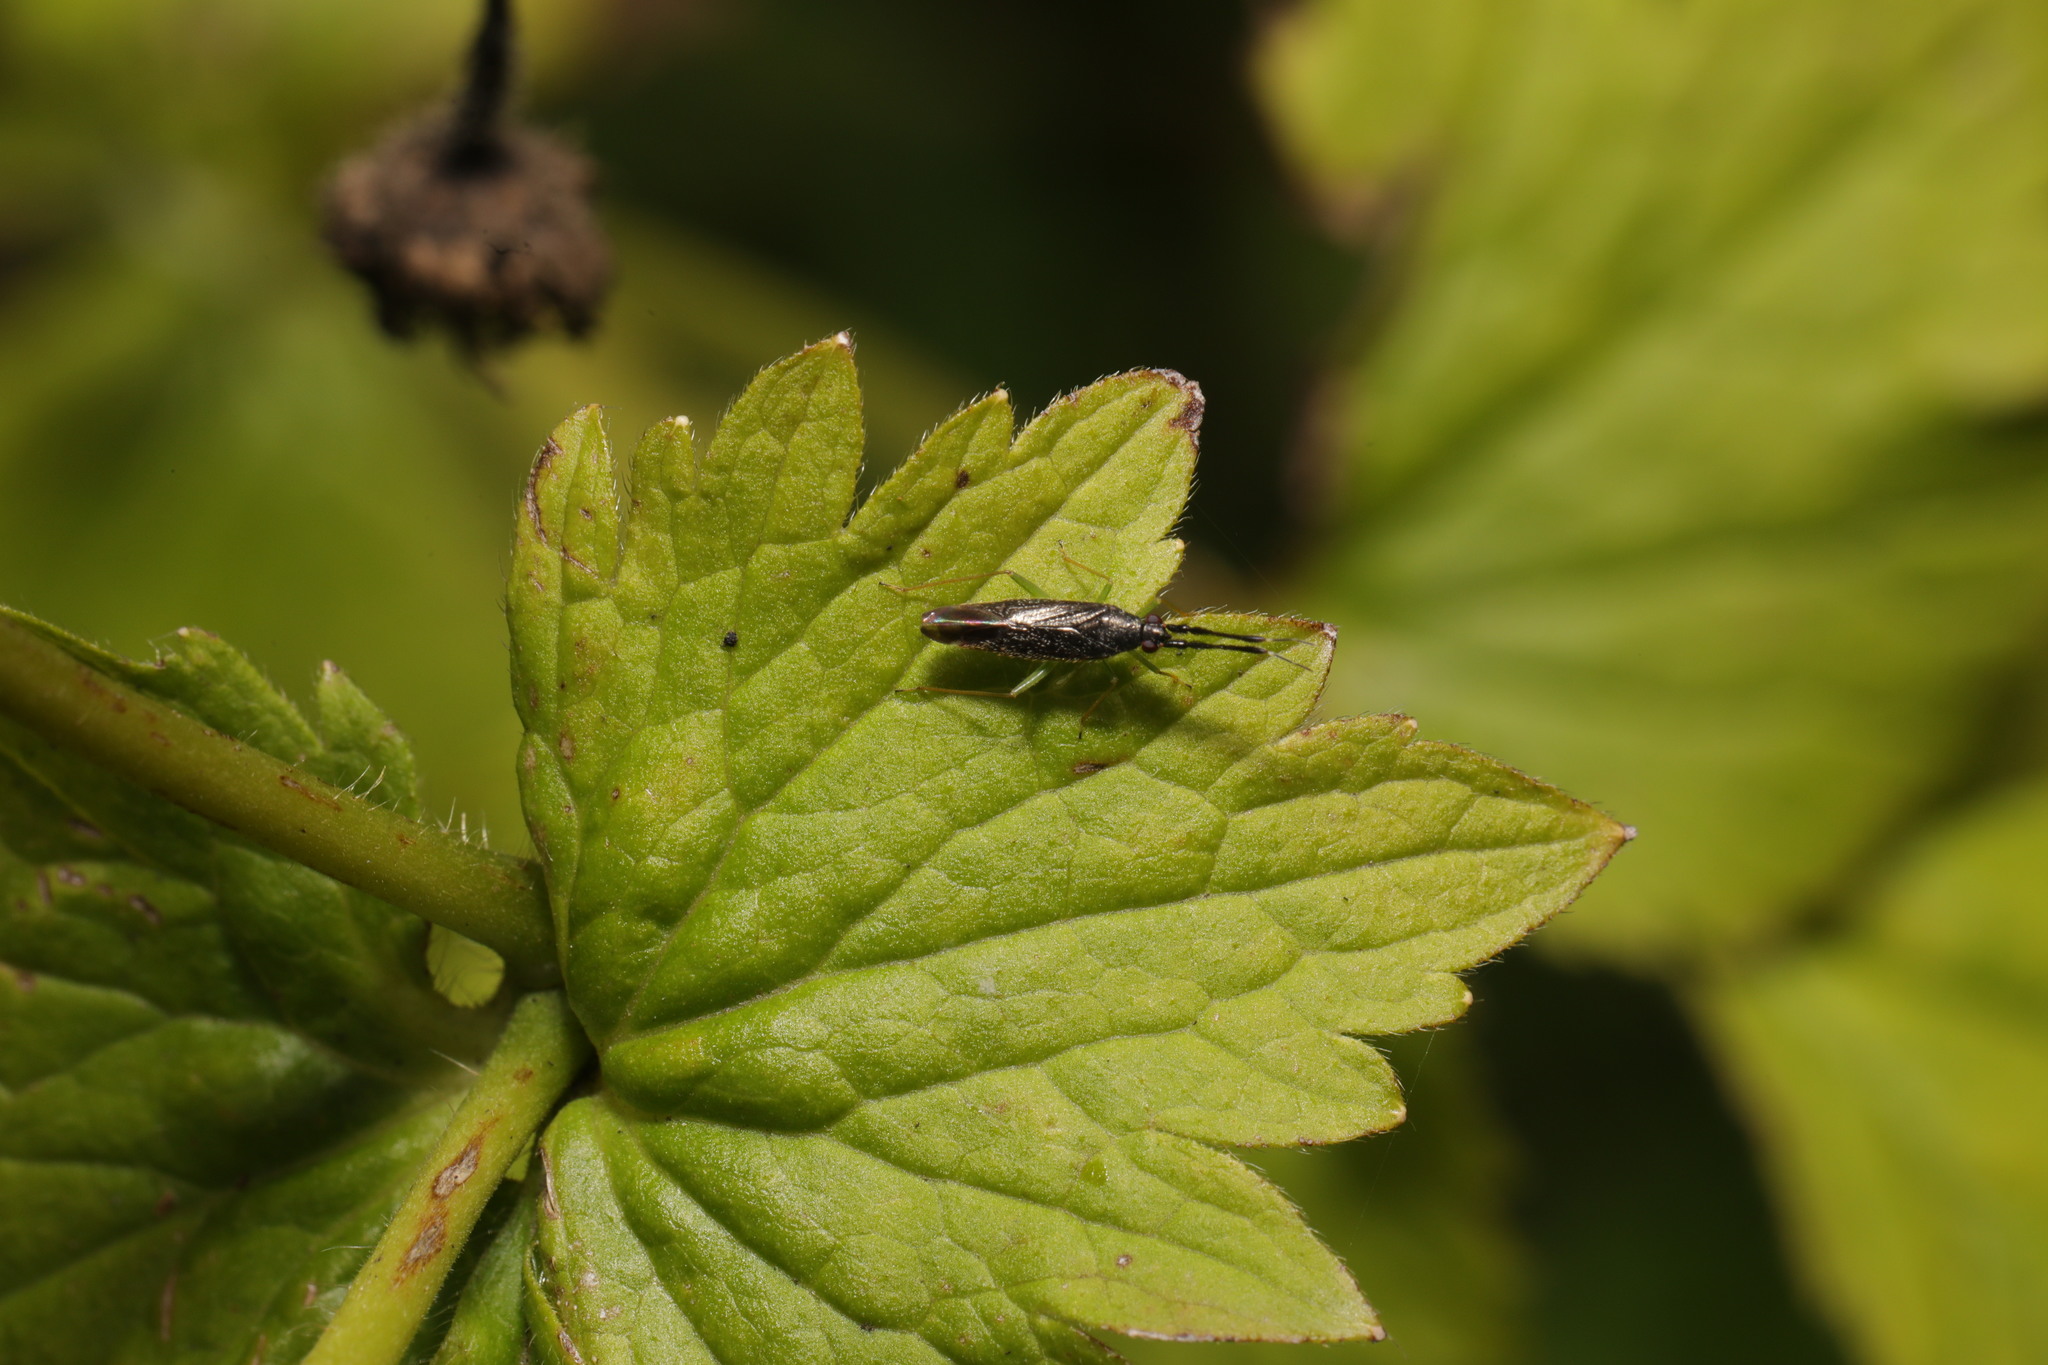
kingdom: Animalia
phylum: Arthropoda
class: Insecta
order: Hemiptera
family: Miridae
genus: Heterotoma
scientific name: Heterotoma planicornis
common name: Plant bug
